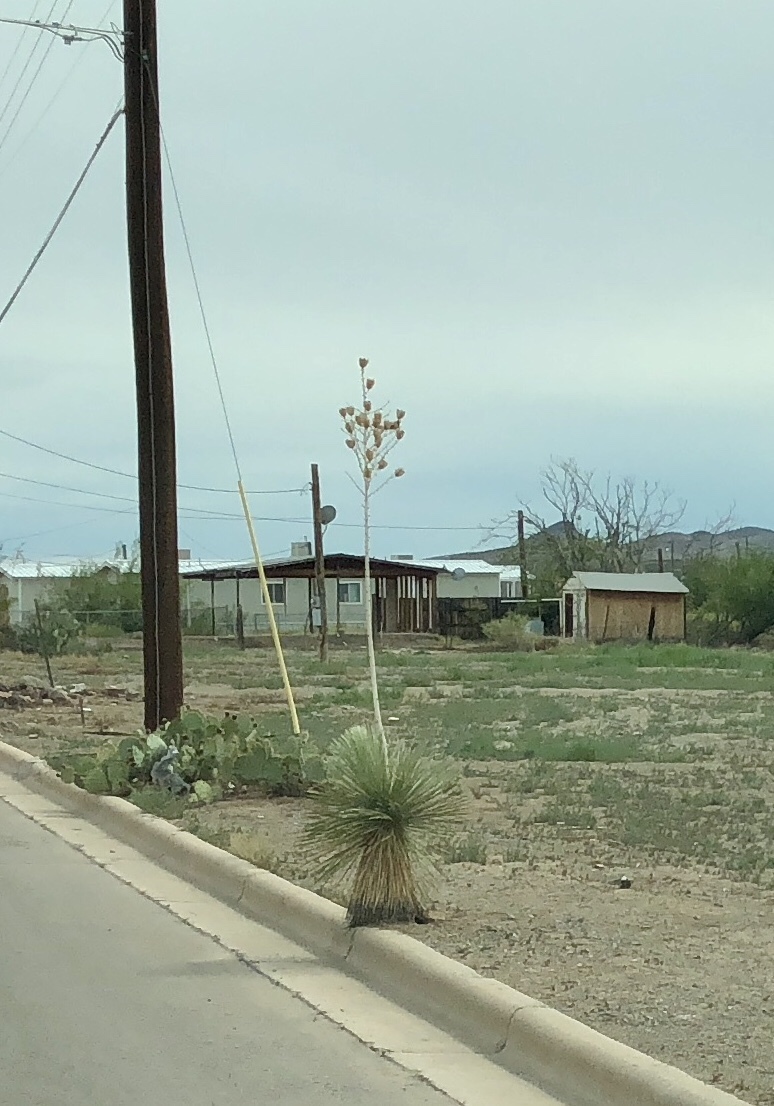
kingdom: Plantae
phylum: Tracheophyta
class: Liliopsida
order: Asparagales
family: Asparagaceae
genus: Yucca
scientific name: Yucca elata
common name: Palmella
